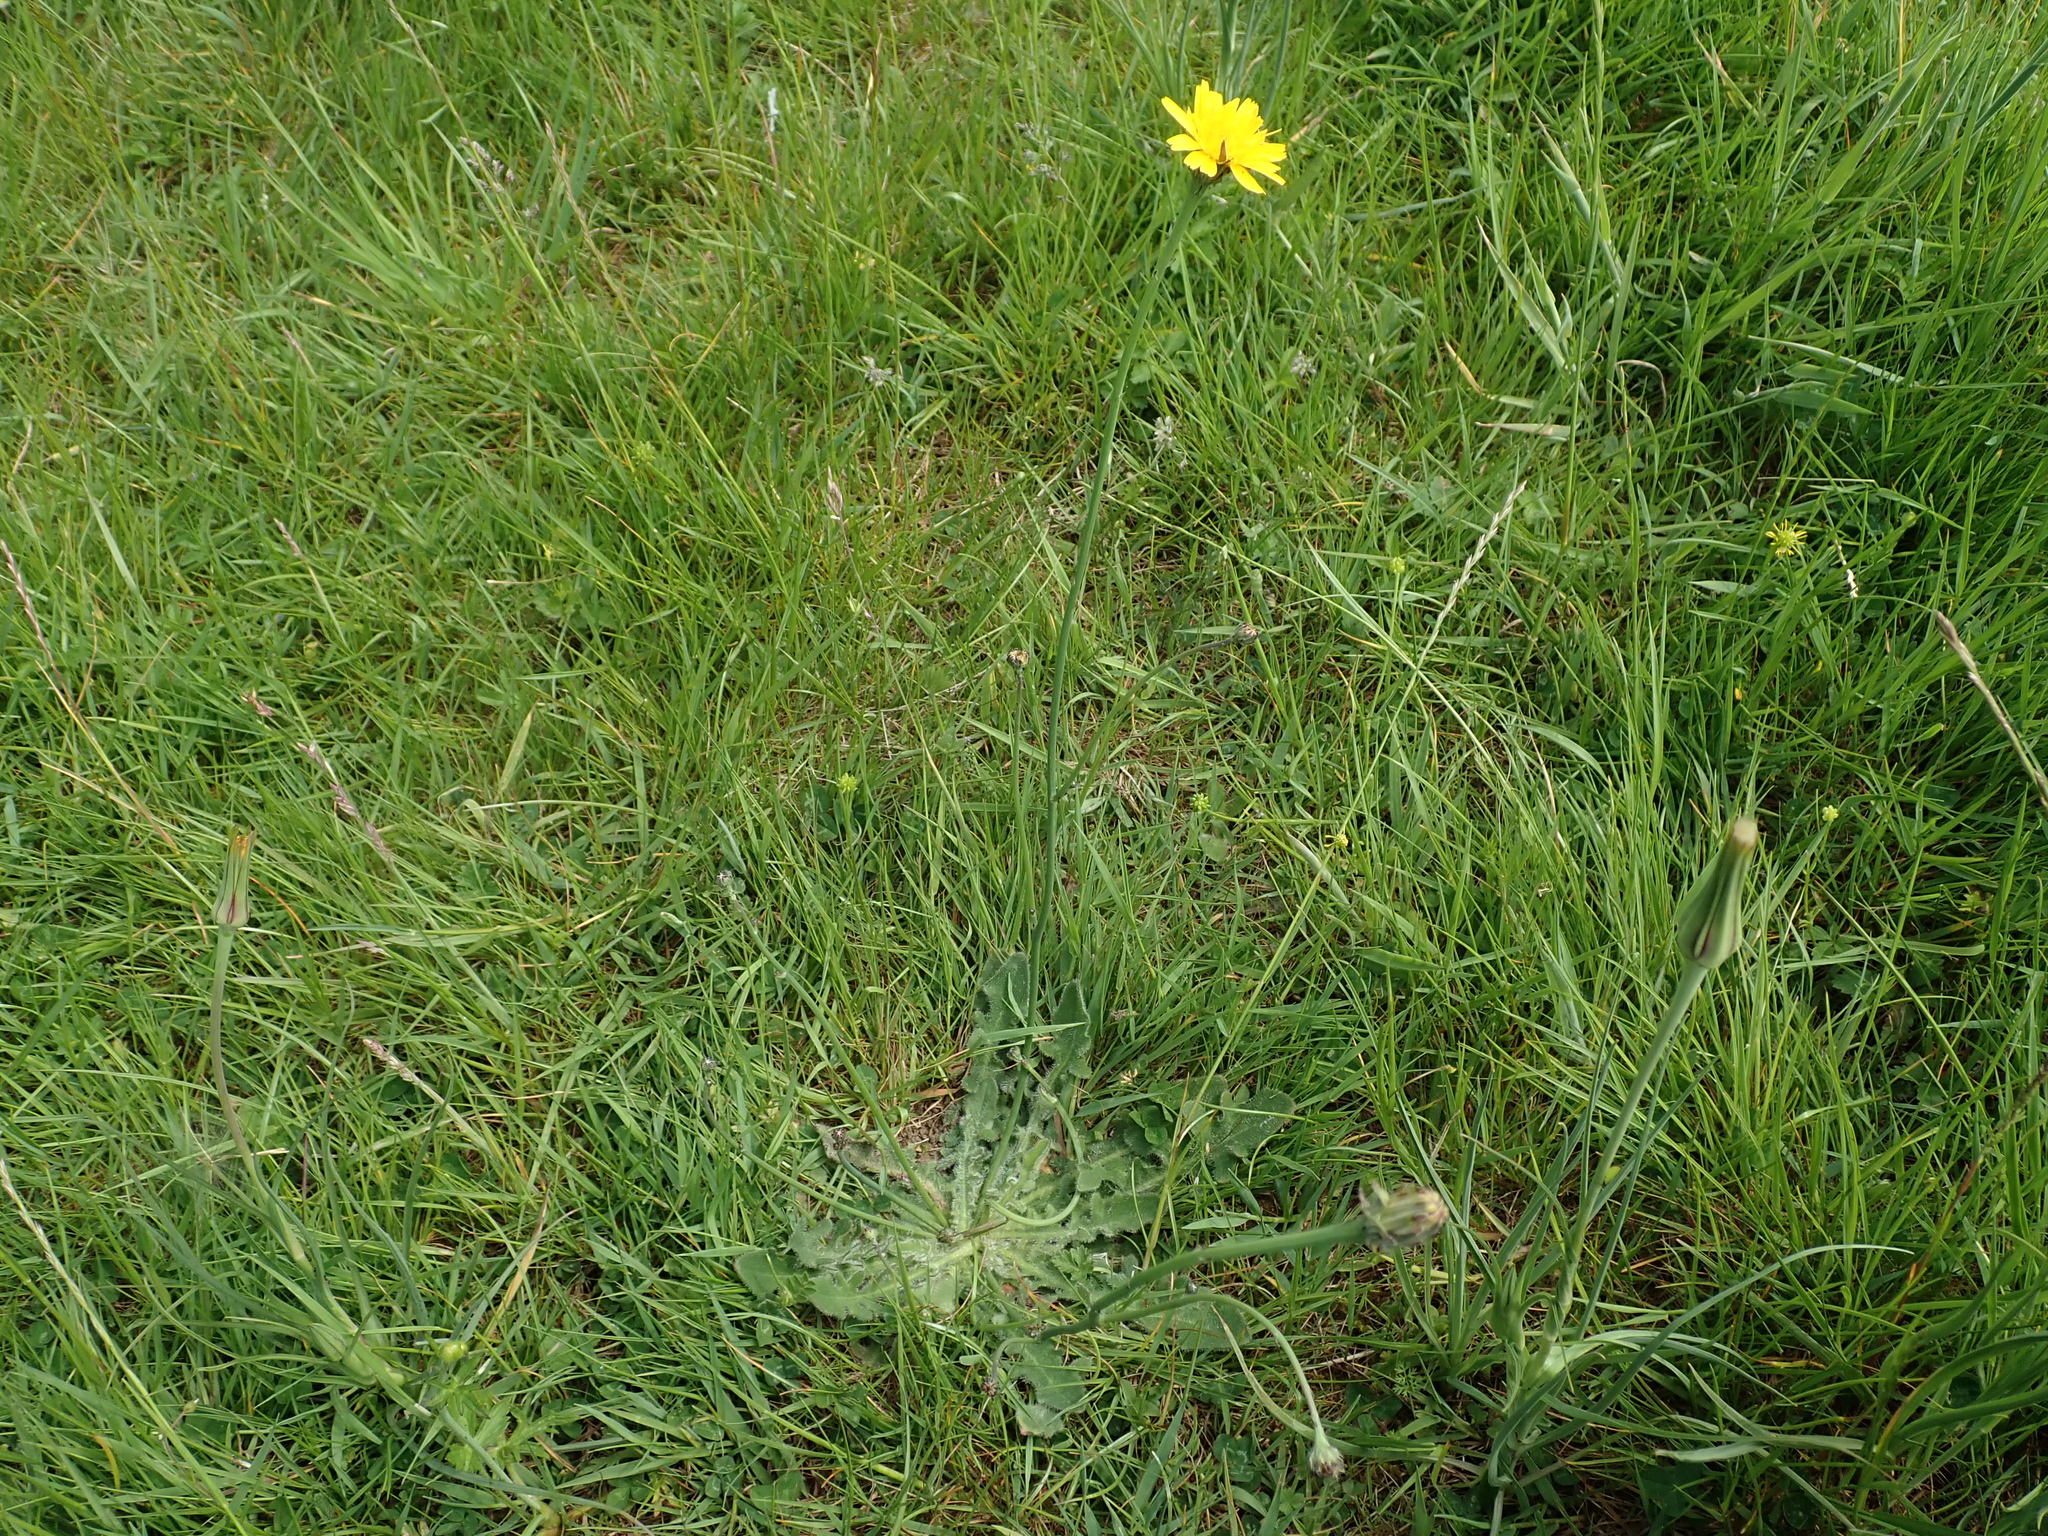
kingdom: Plantae
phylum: Tracheophyta
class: Magnoliopsida
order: Asterales
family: Asteraceae
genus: Hypochaeris
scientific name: Hypochaeris radicata
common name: Flatweed
